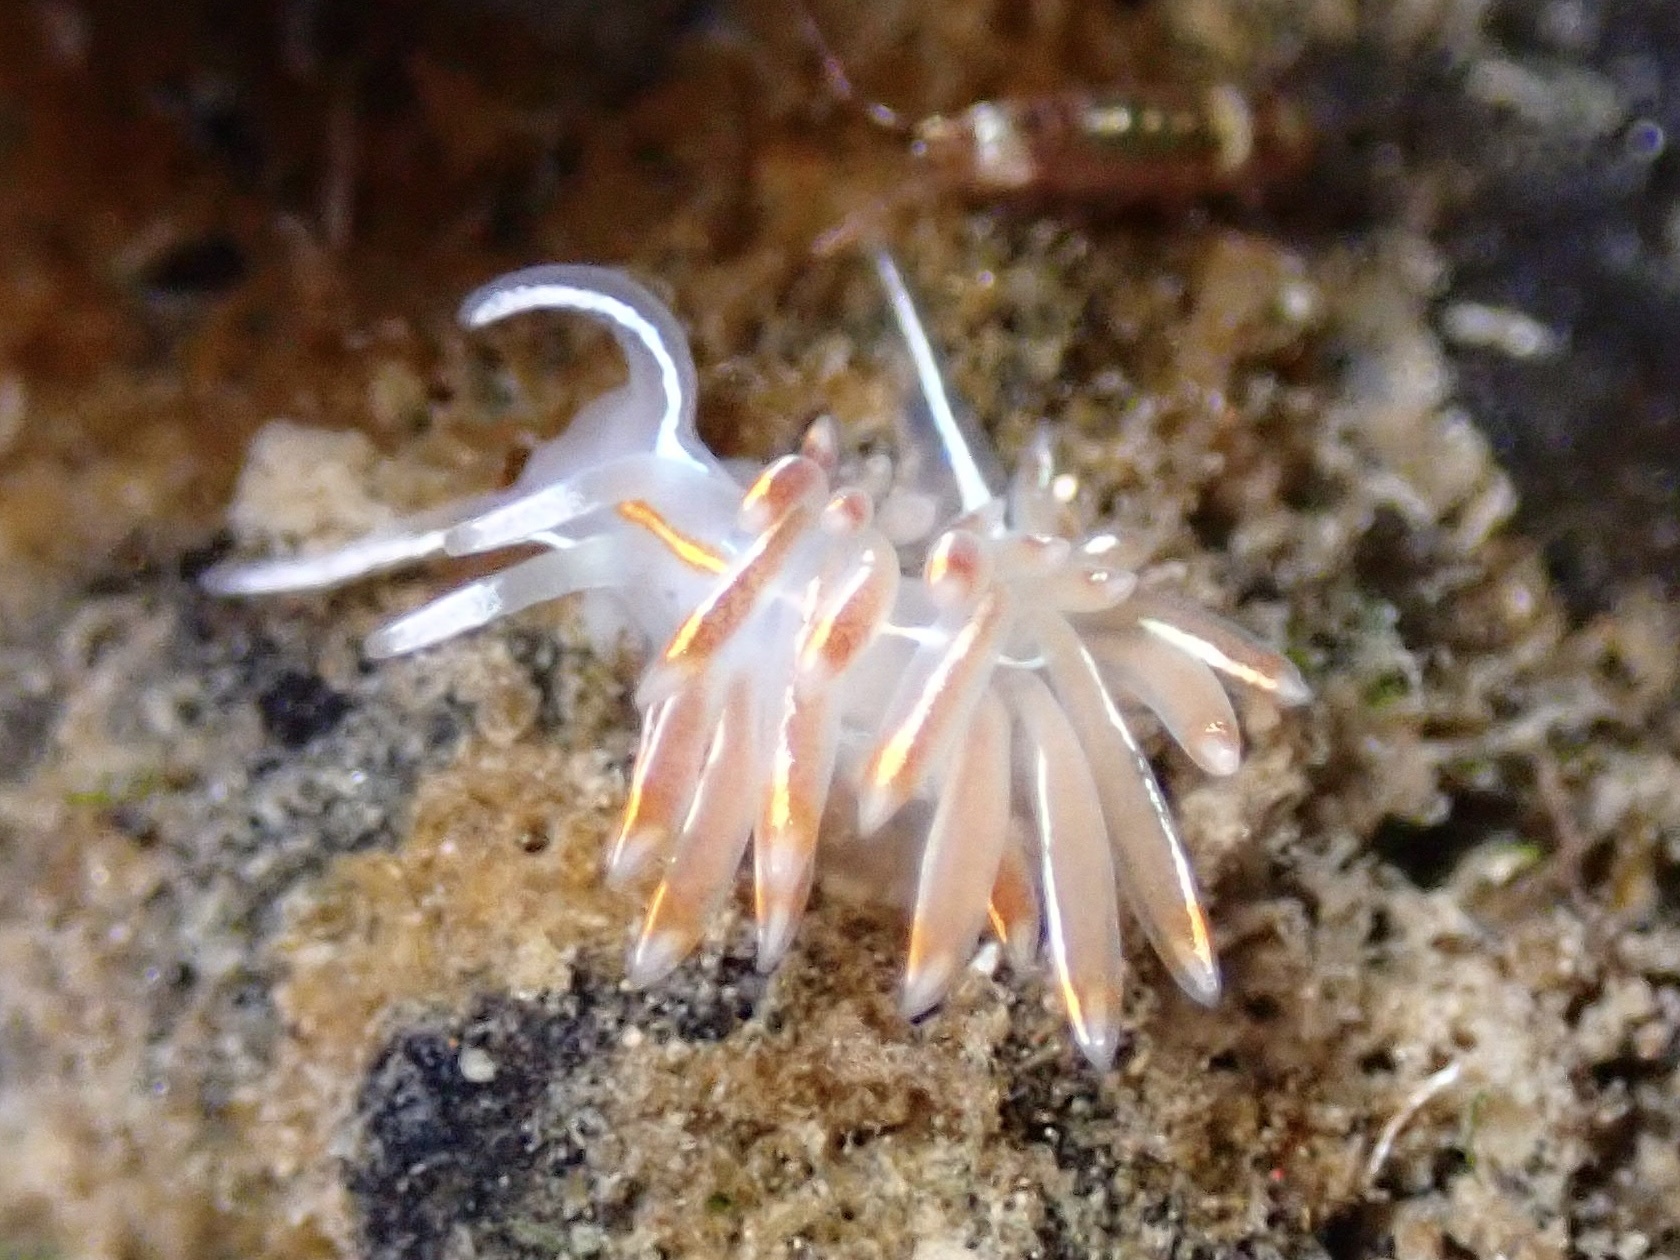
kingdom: Animalia
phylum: Mollusca
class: Gastropoda
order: Nudibranchia
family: Myrrhinidae
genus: Hermissenda
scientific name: Hermissenda crassicornis
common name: Hermissenda
